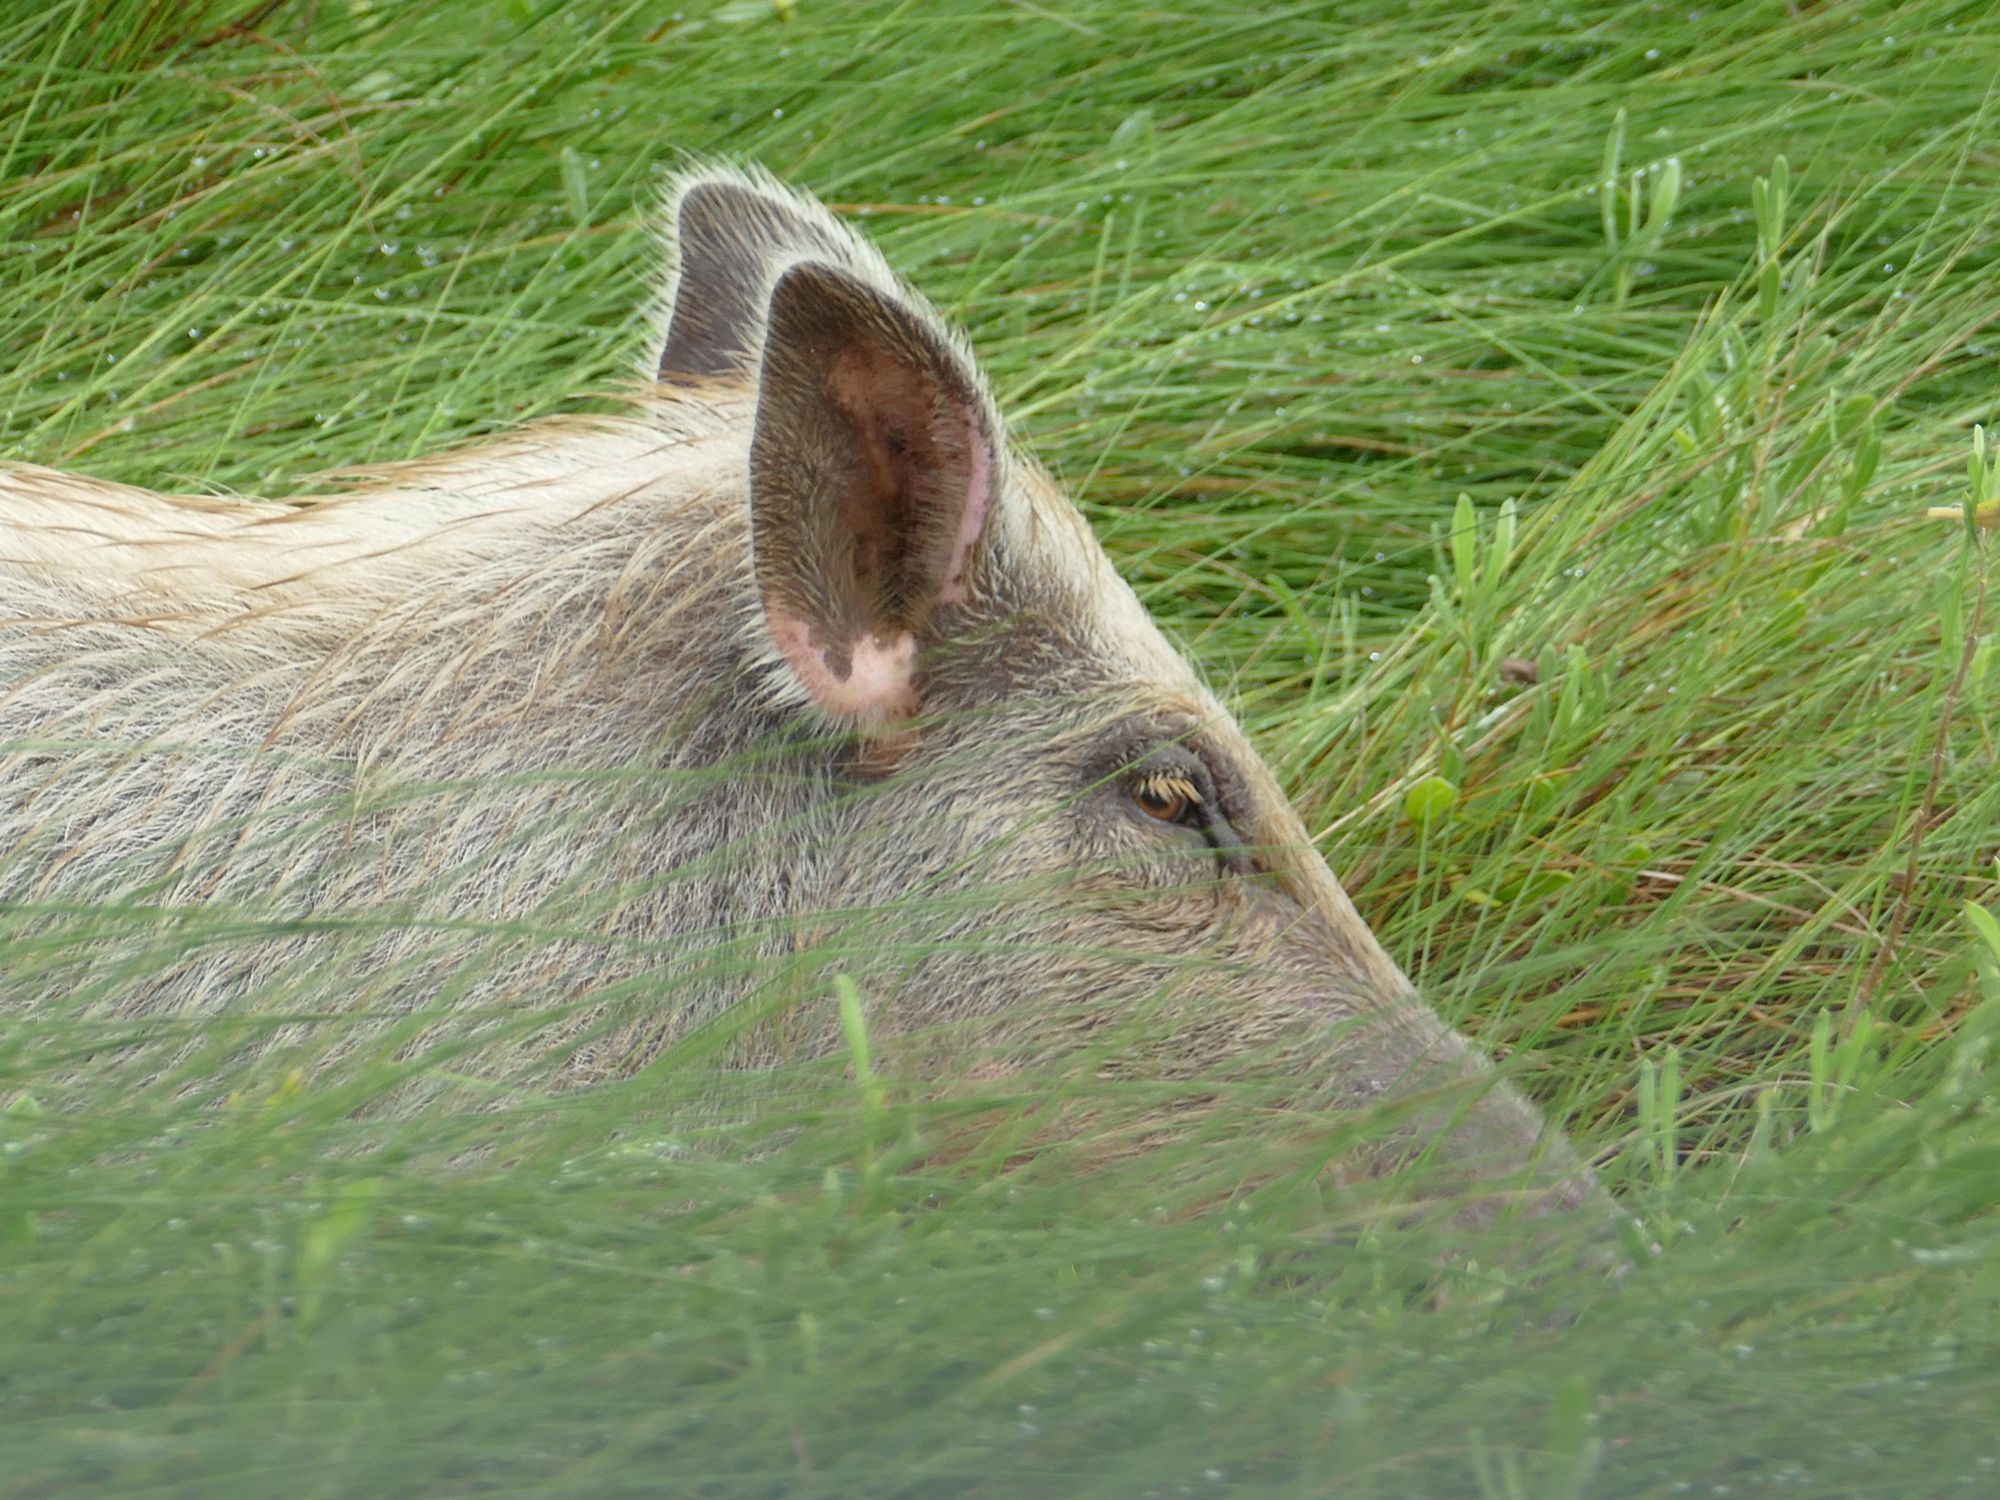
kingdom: Animalia
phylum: Chordata
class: Mammalia
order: Artiodactyla
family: Suidae
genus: Sus
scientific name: Sus scrofa
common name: Wild boar
